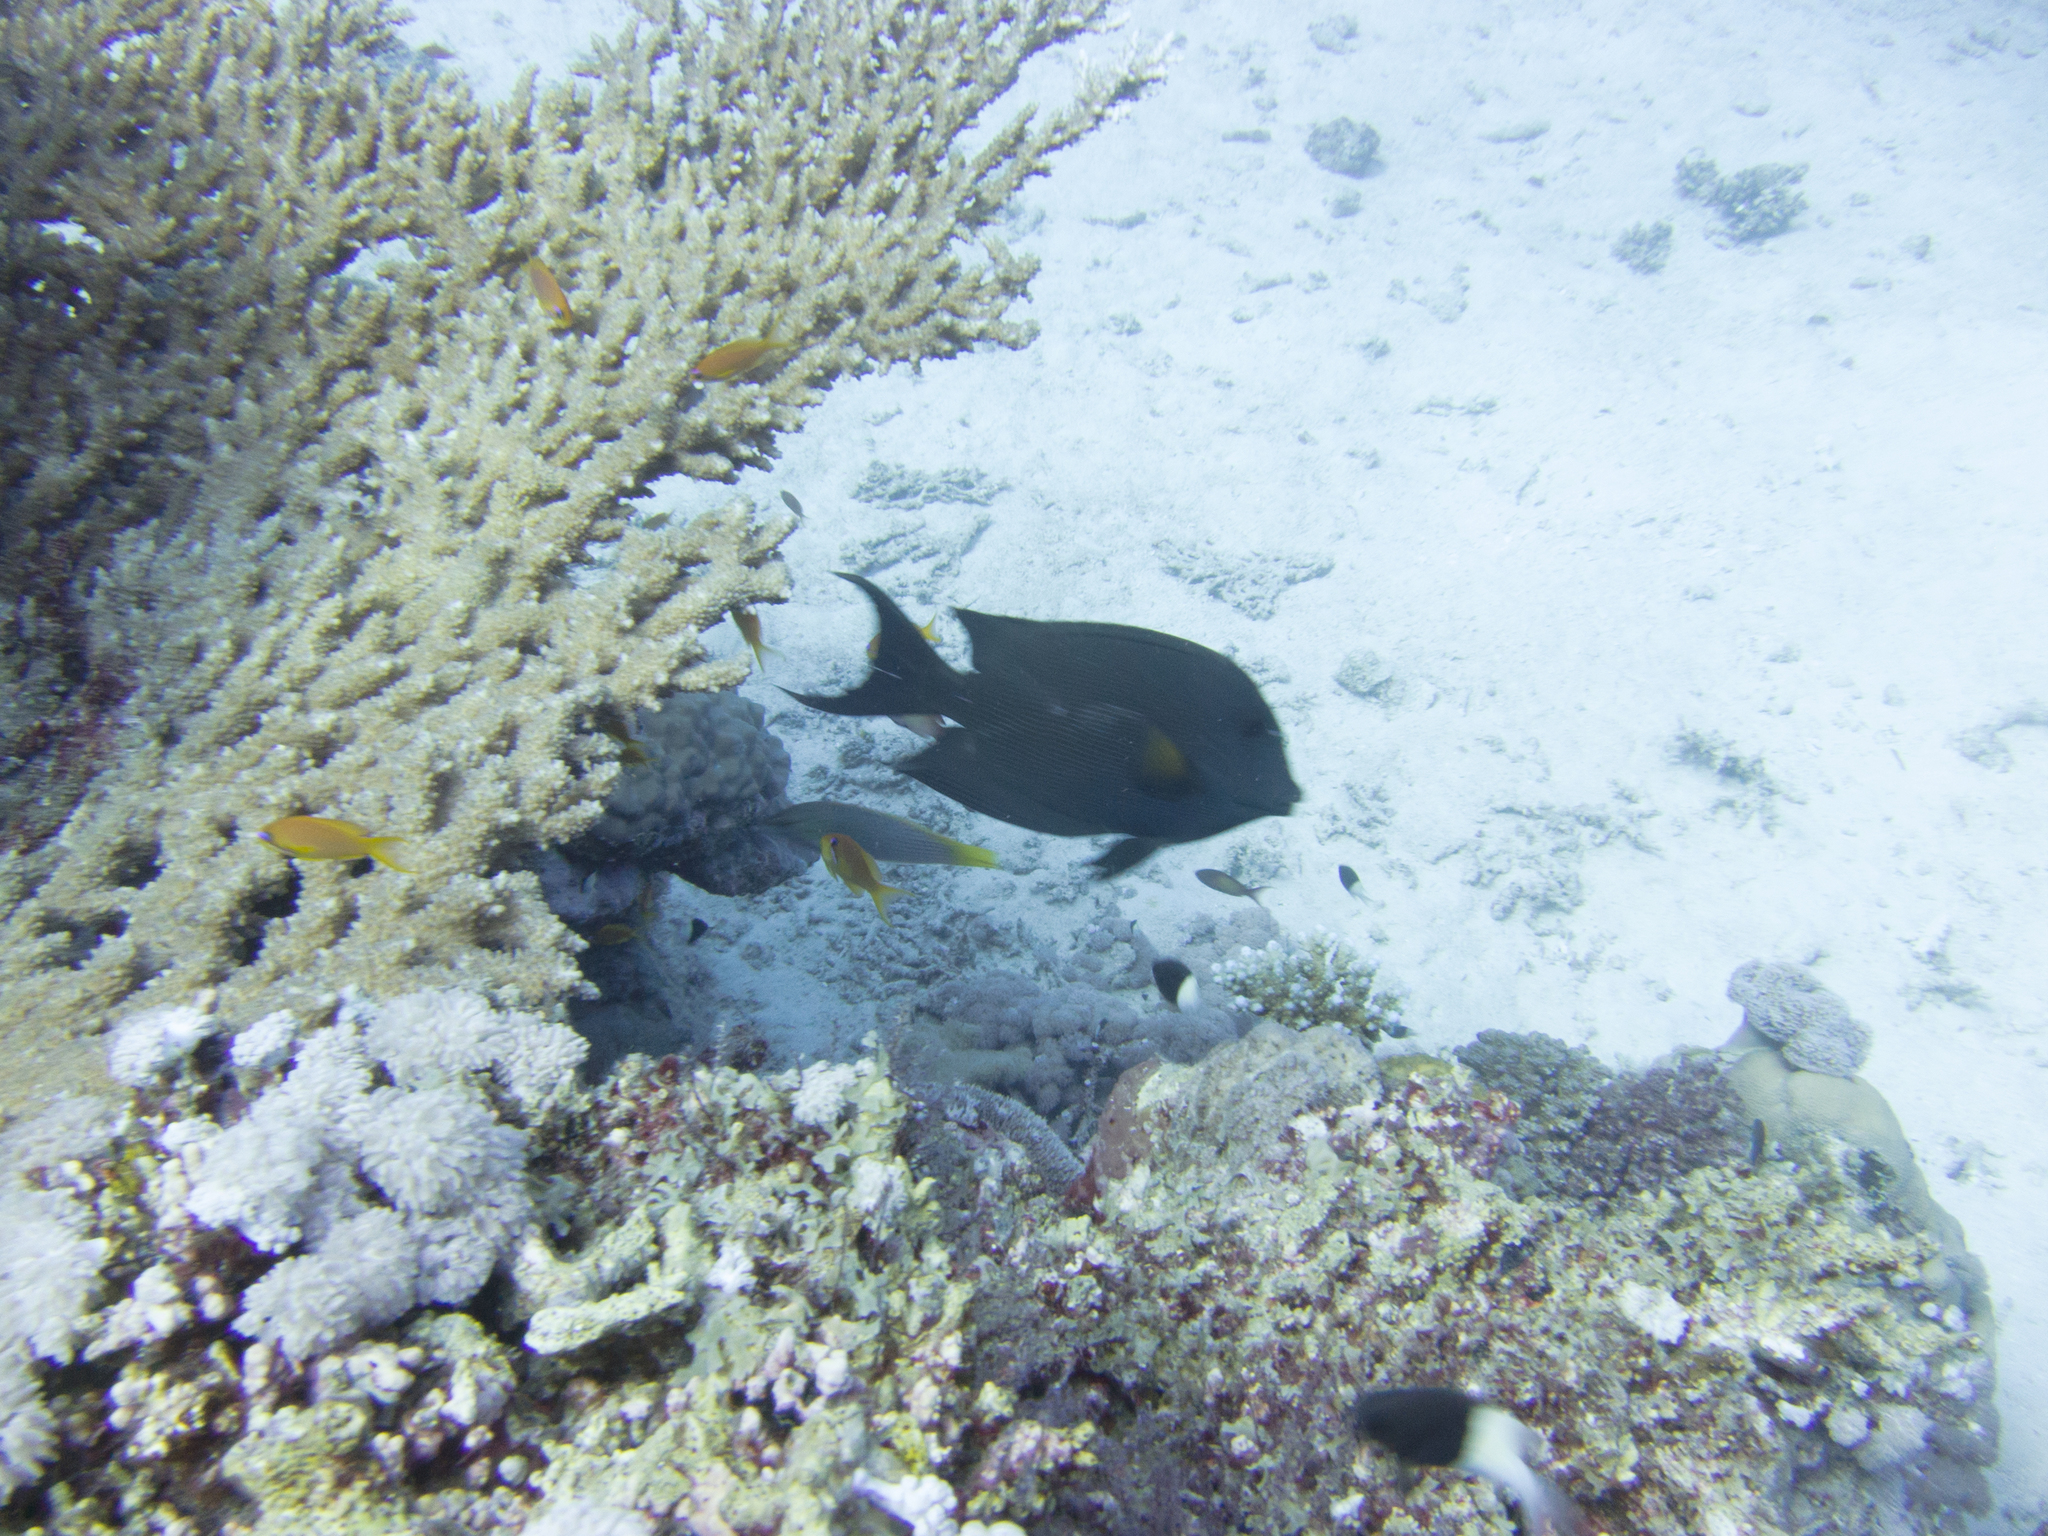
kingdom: Animalia
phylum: Chordata
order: Perciformes
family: Pomacentridae
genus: Chromis
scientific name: Chromis dimidiata
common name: Half-and-half chromis
